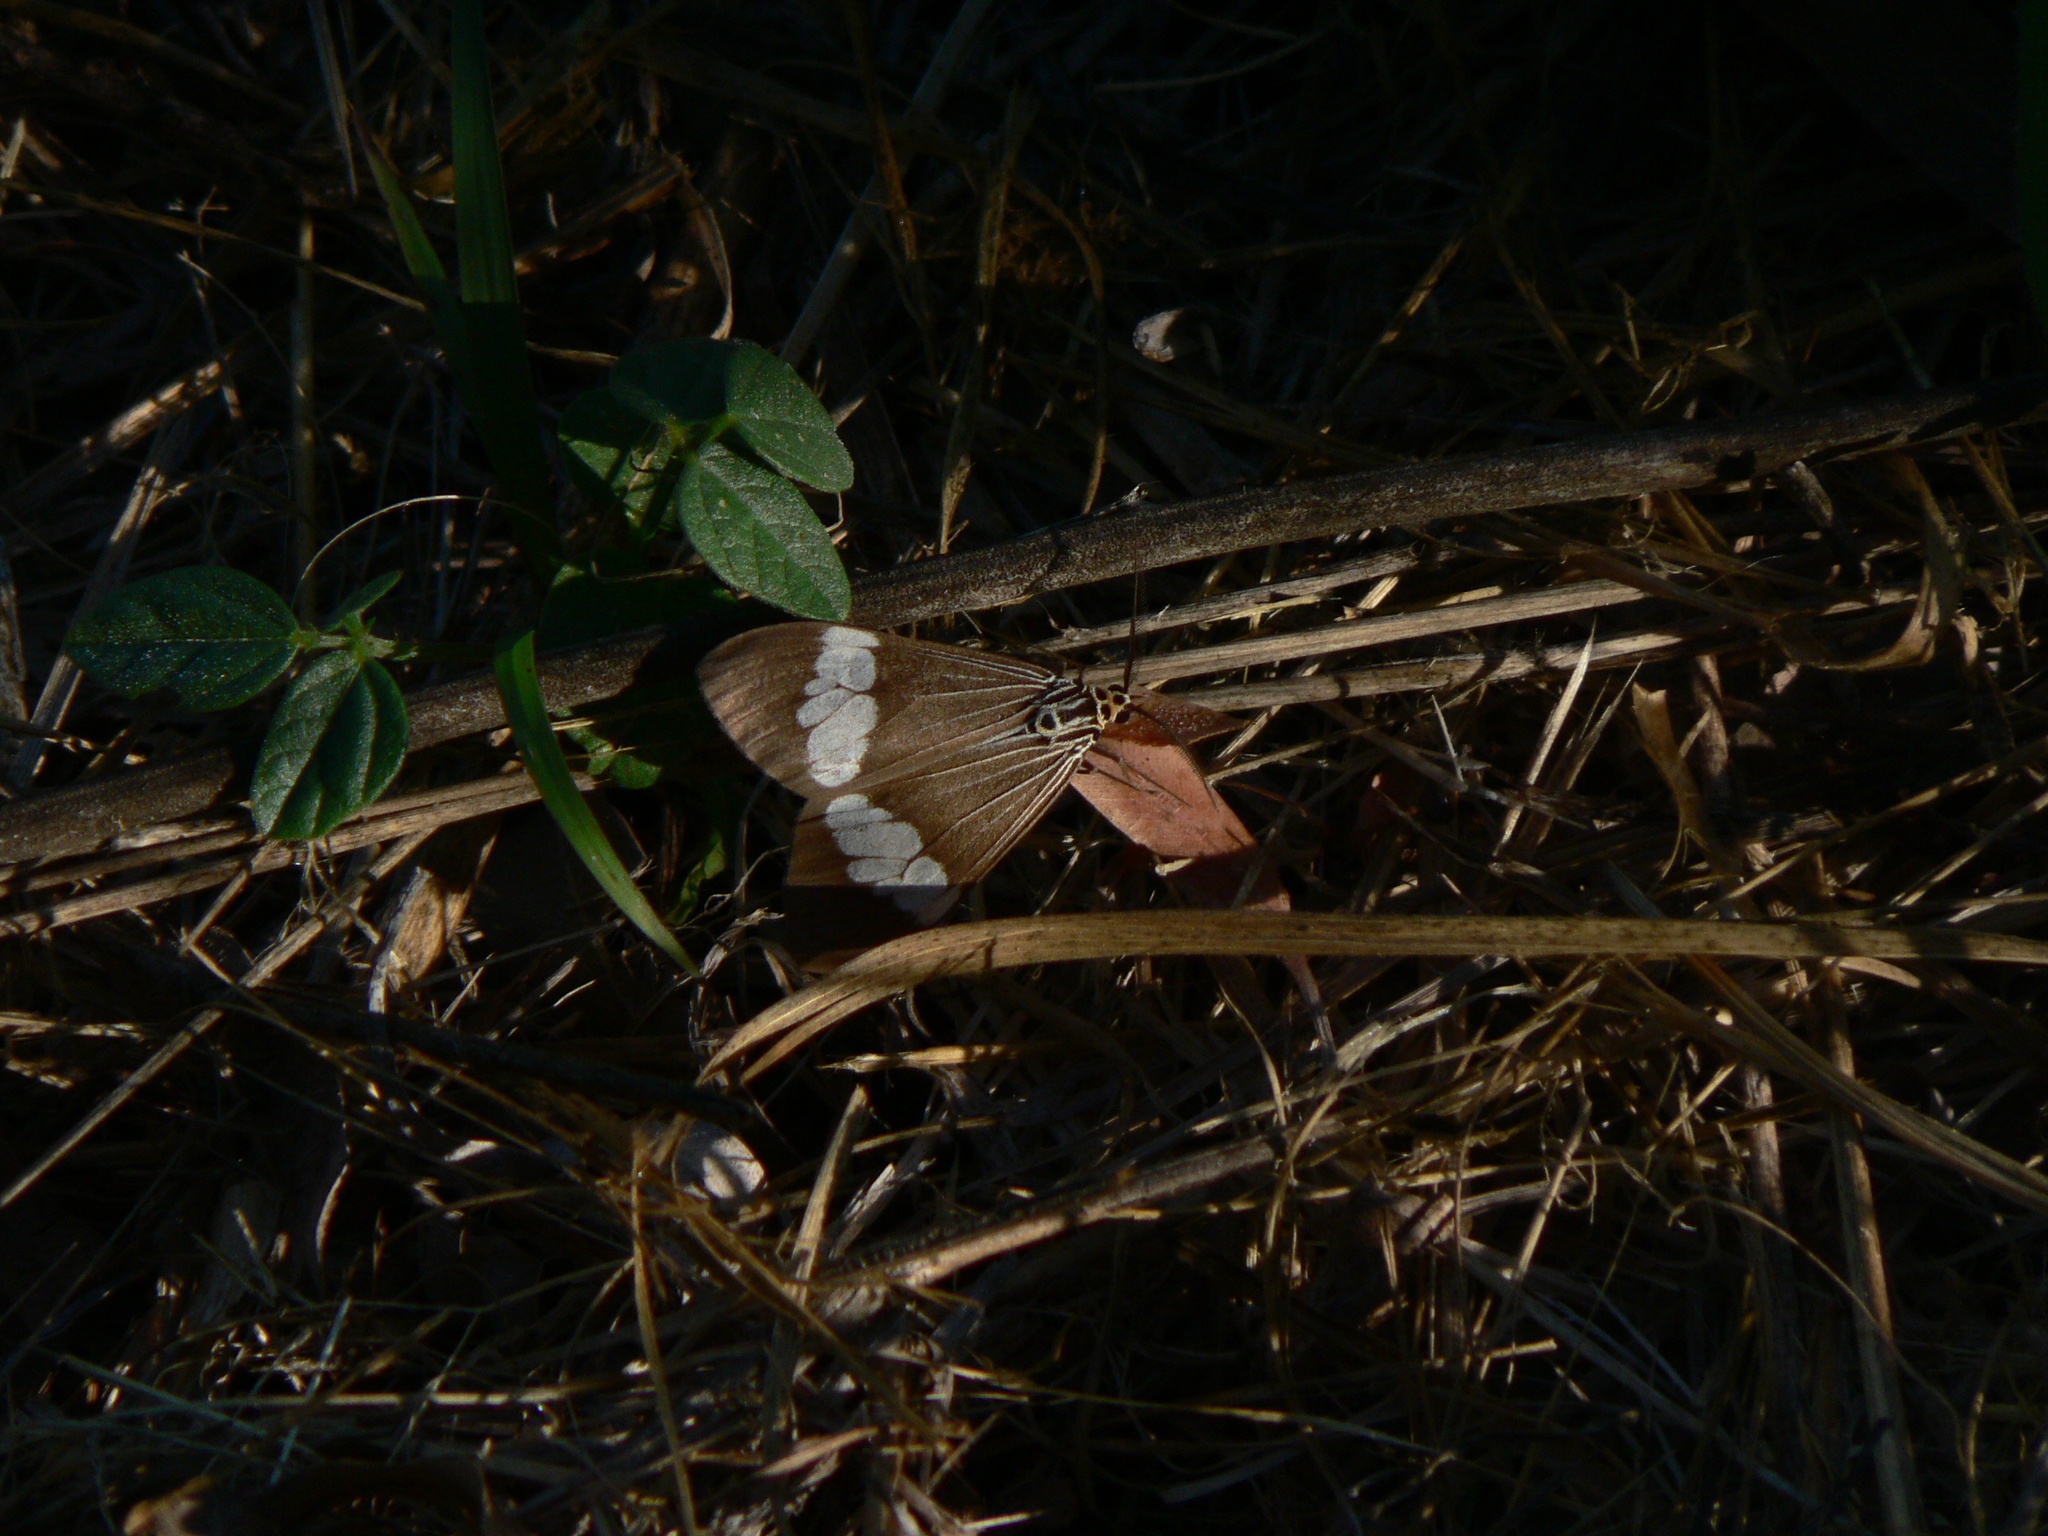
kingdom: Animalia
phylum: Arthropoda
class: Insecta
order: Lepidoptera
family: Erebidae
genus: Nyctemera
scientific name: Nyctemera baulus
